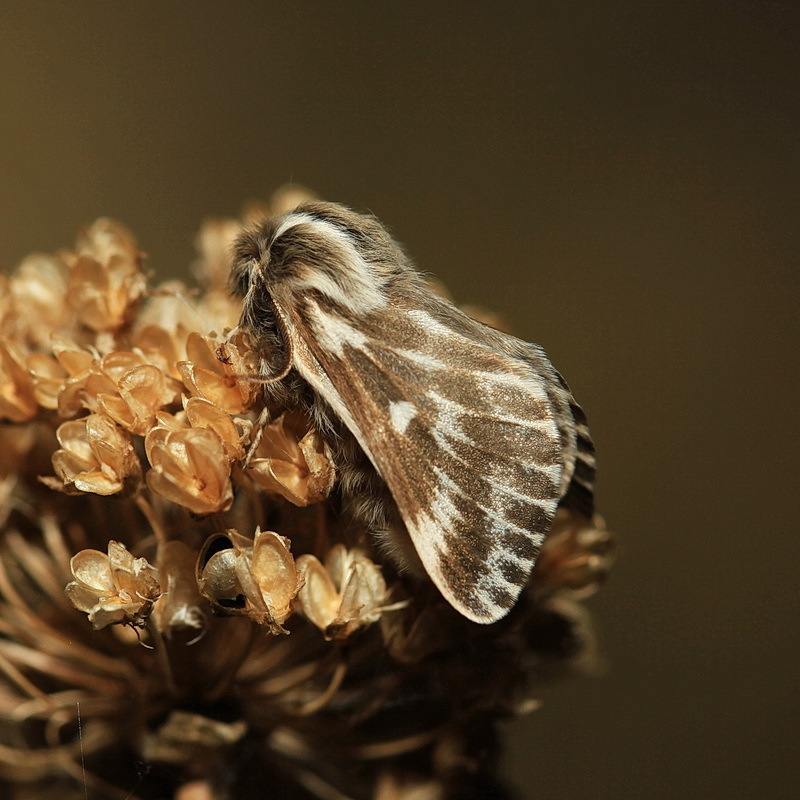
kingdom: Animalia
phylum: Arthropoda
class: Insecta
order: Lepidoptera
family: Lasiocampidae
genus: Eriogaster
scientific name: Eriogaster neogena
